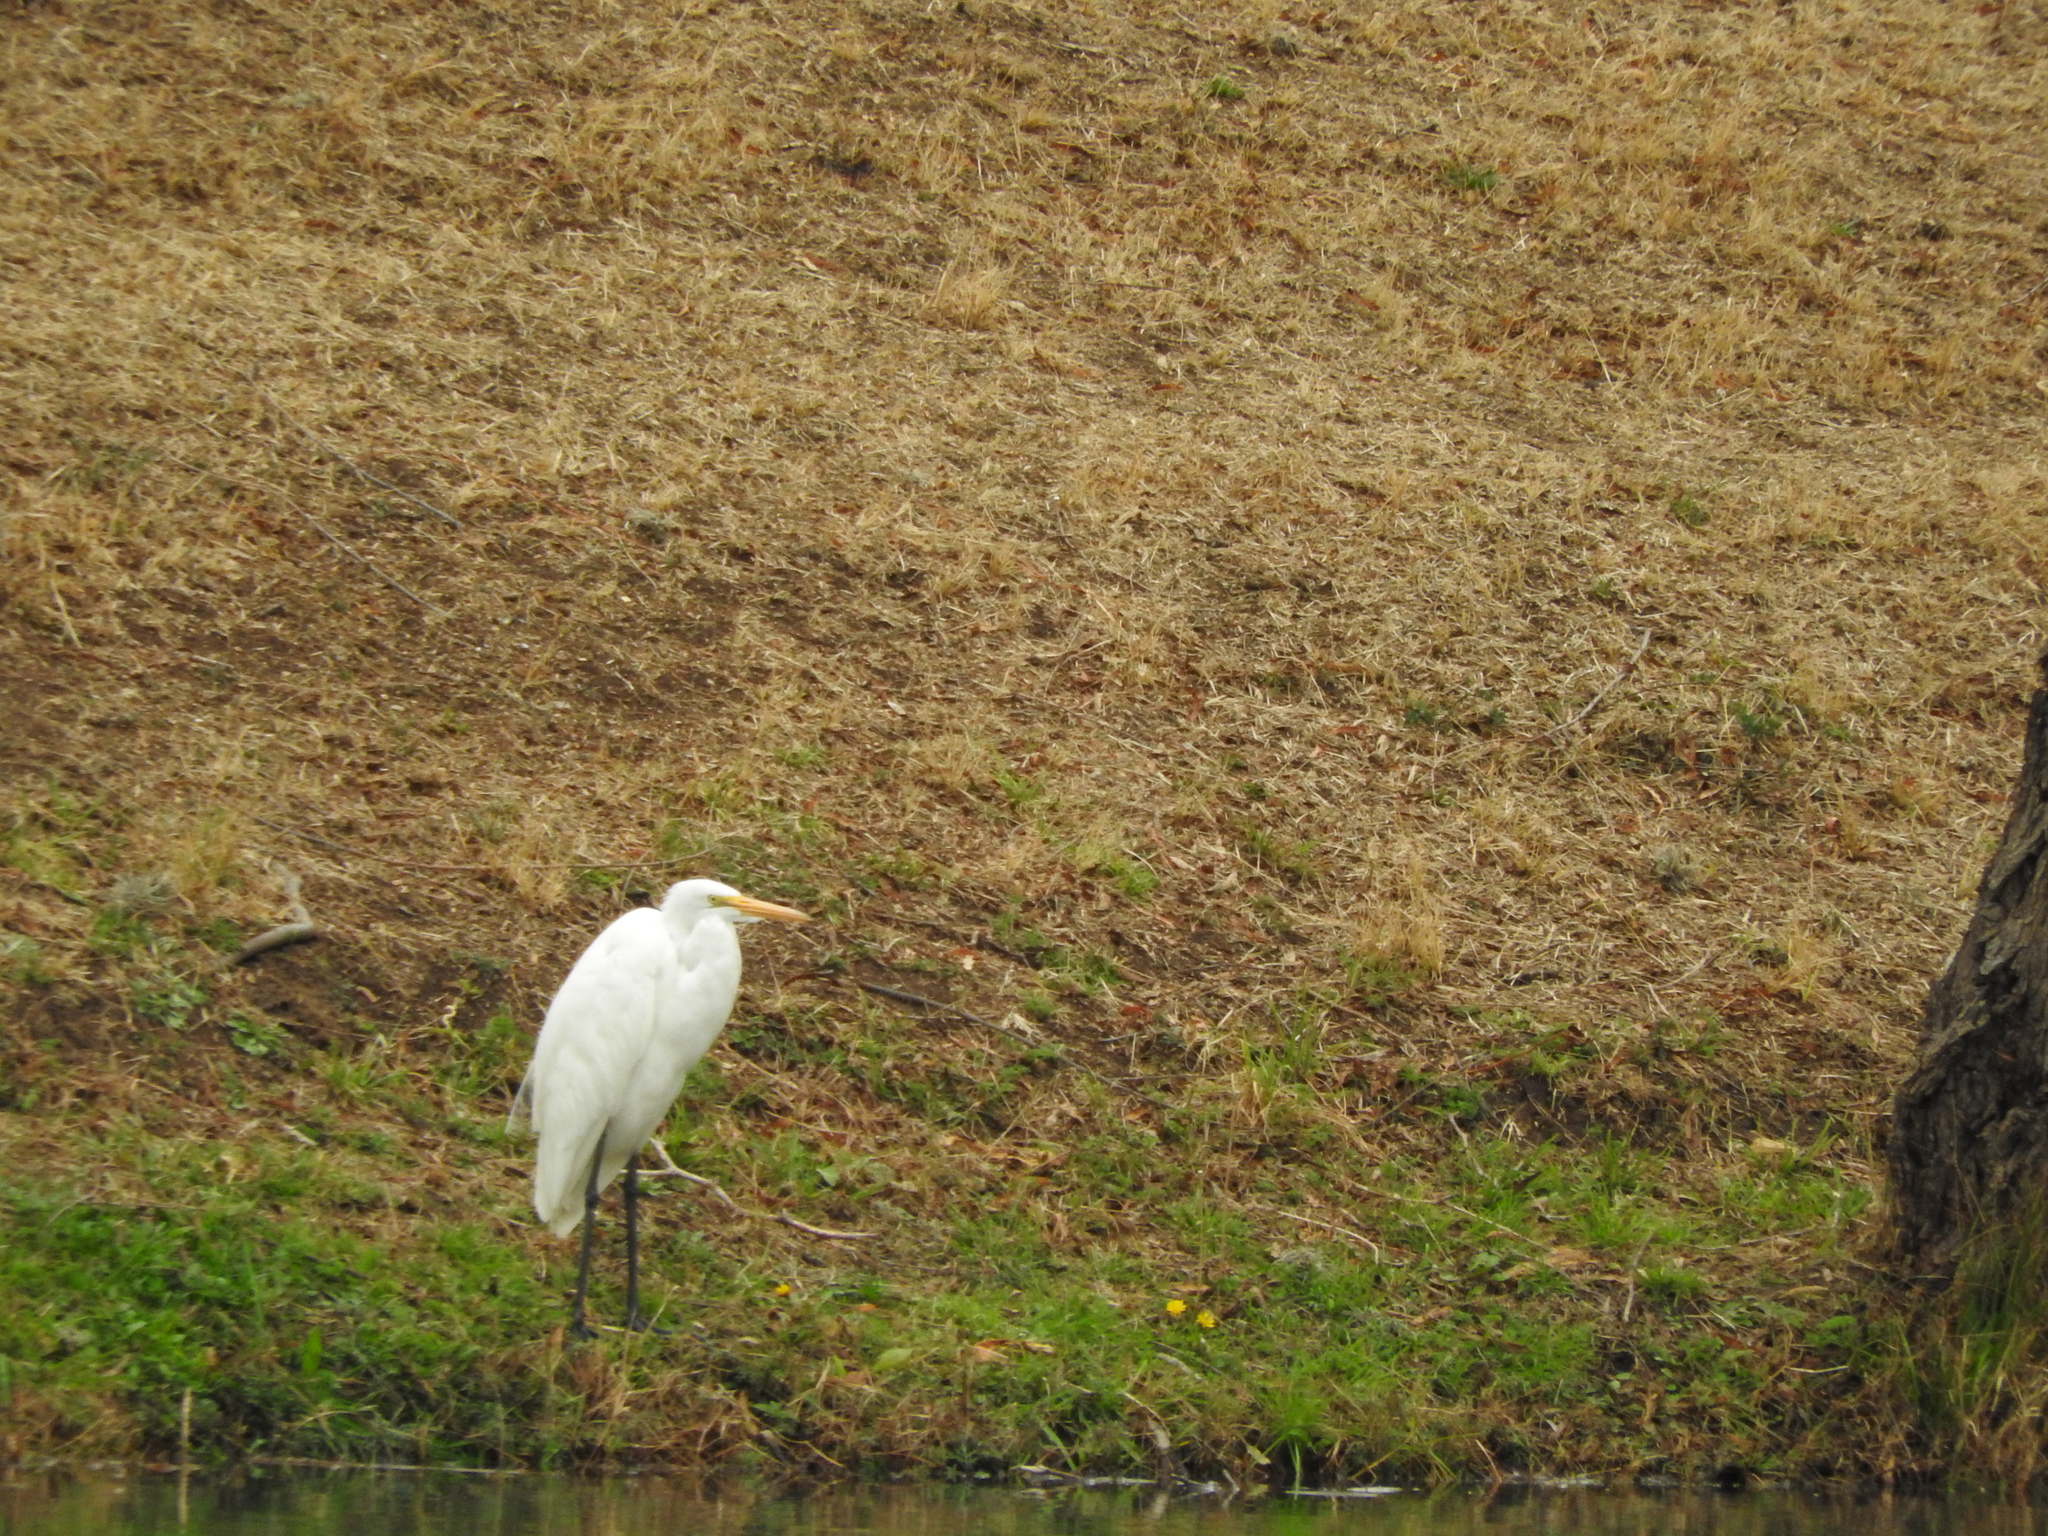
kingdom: Animalia
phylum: Chordata
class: Aves
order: Pelecaniformes
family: Ardeidae
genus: Ardea
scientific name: Ardea alba
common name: Great egret
